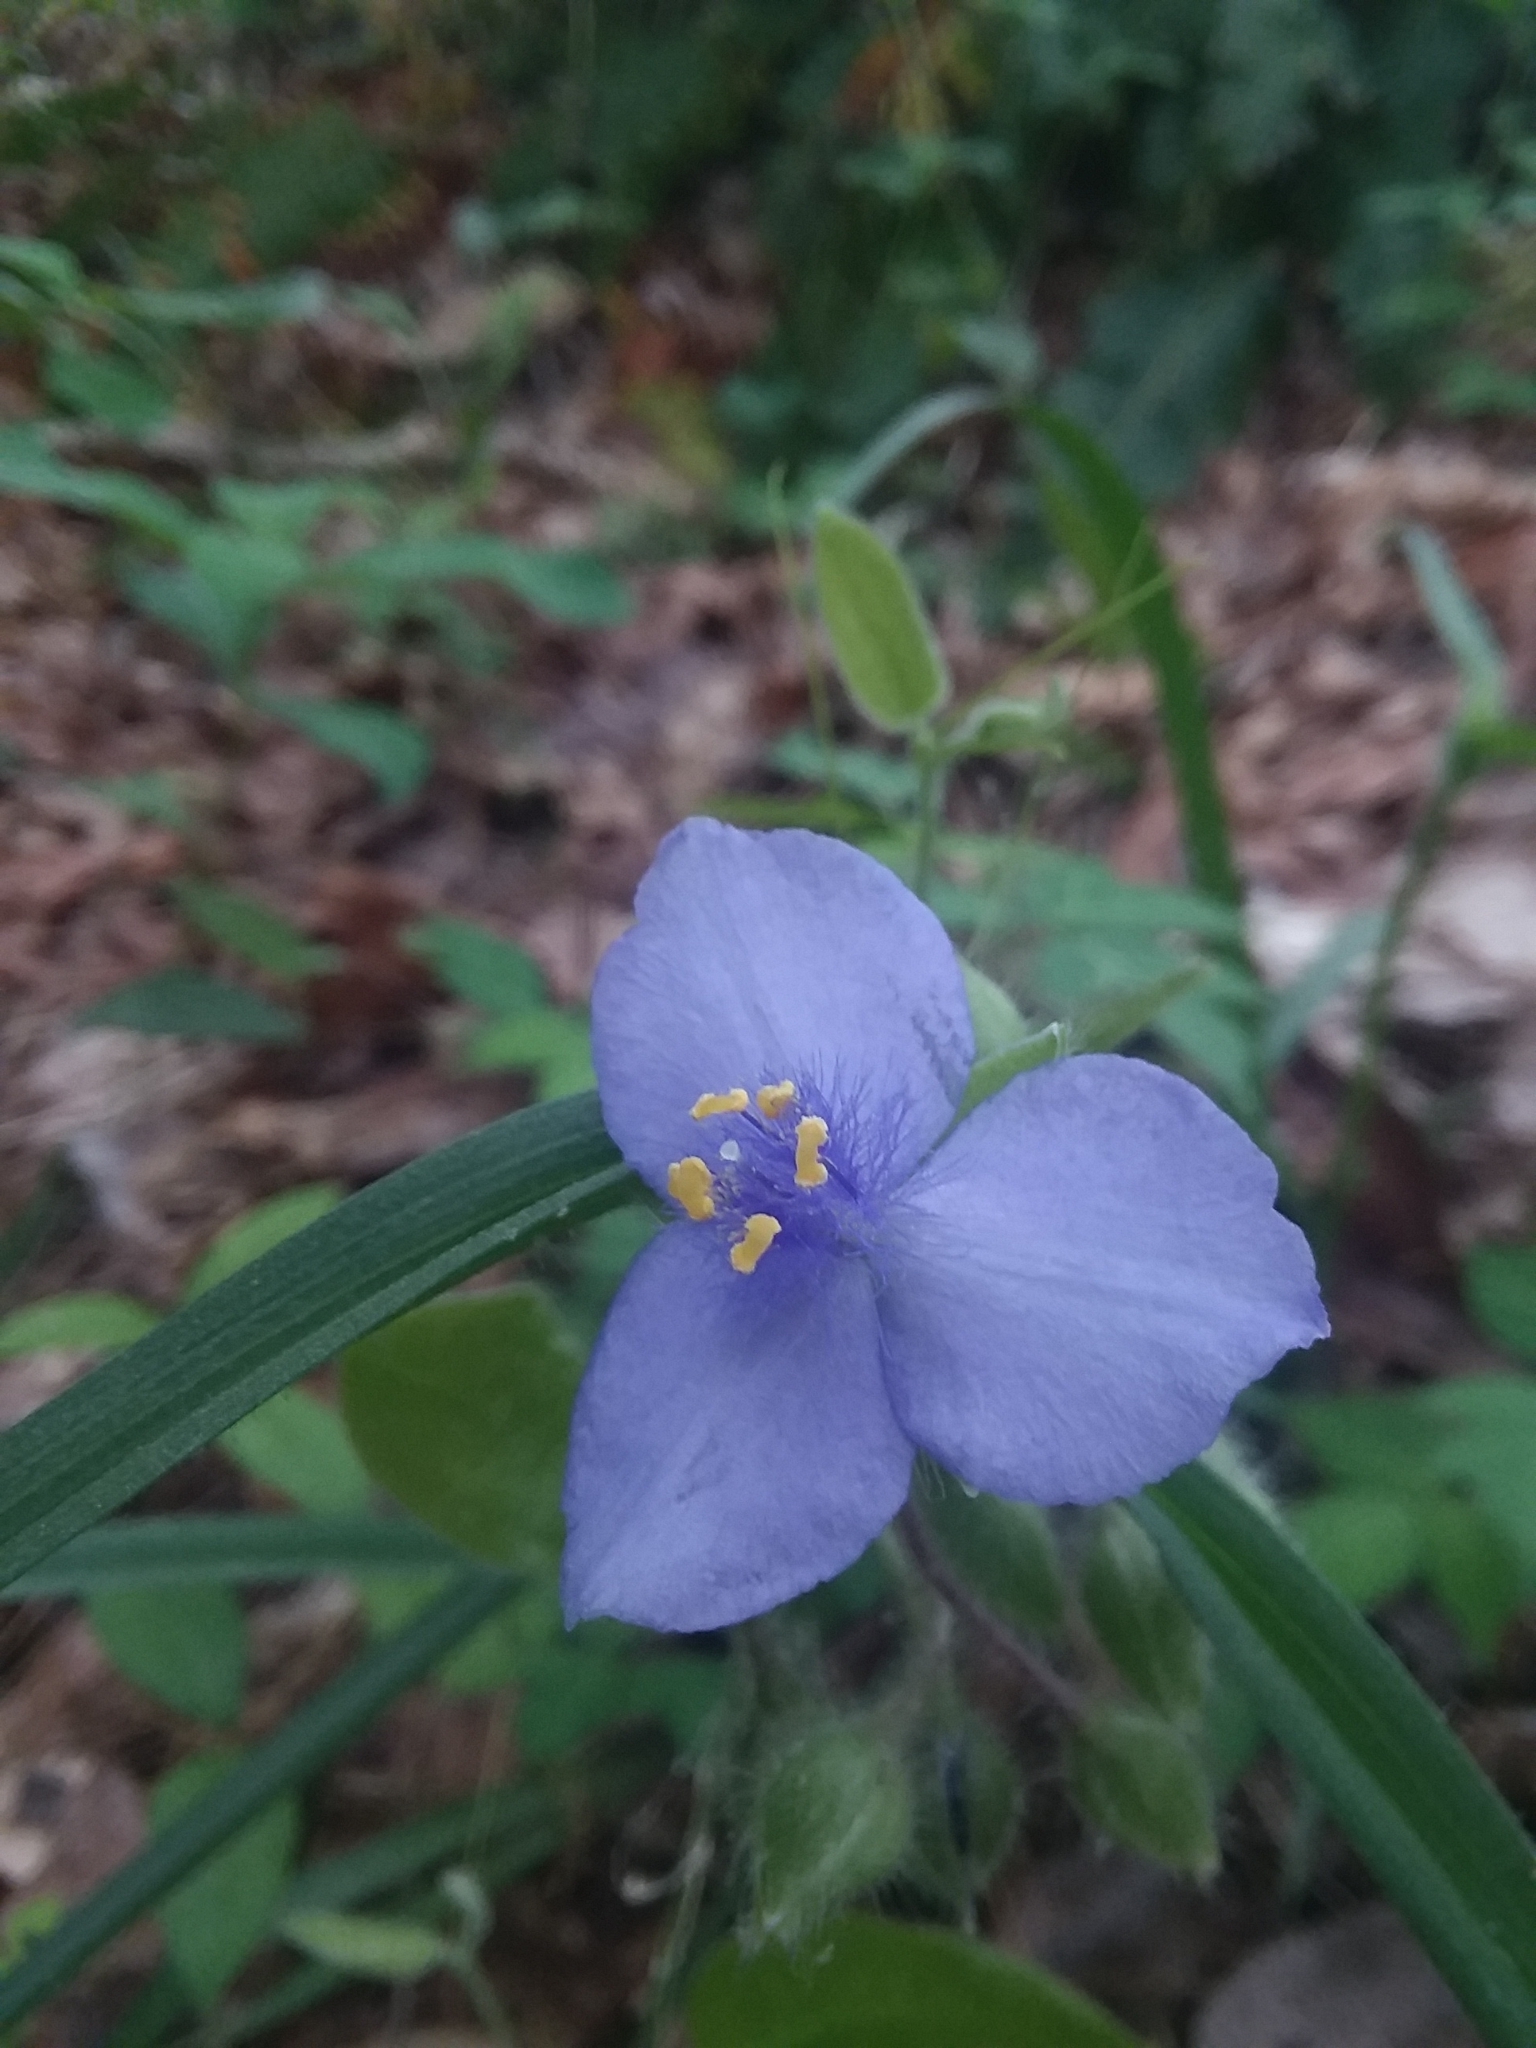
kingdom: Plantae
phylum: Tracheophyta
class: Liliopsida
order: Commelinales
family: Commelinaceae
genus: Tradescantia
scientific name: Tradescantia hirsutiflora
